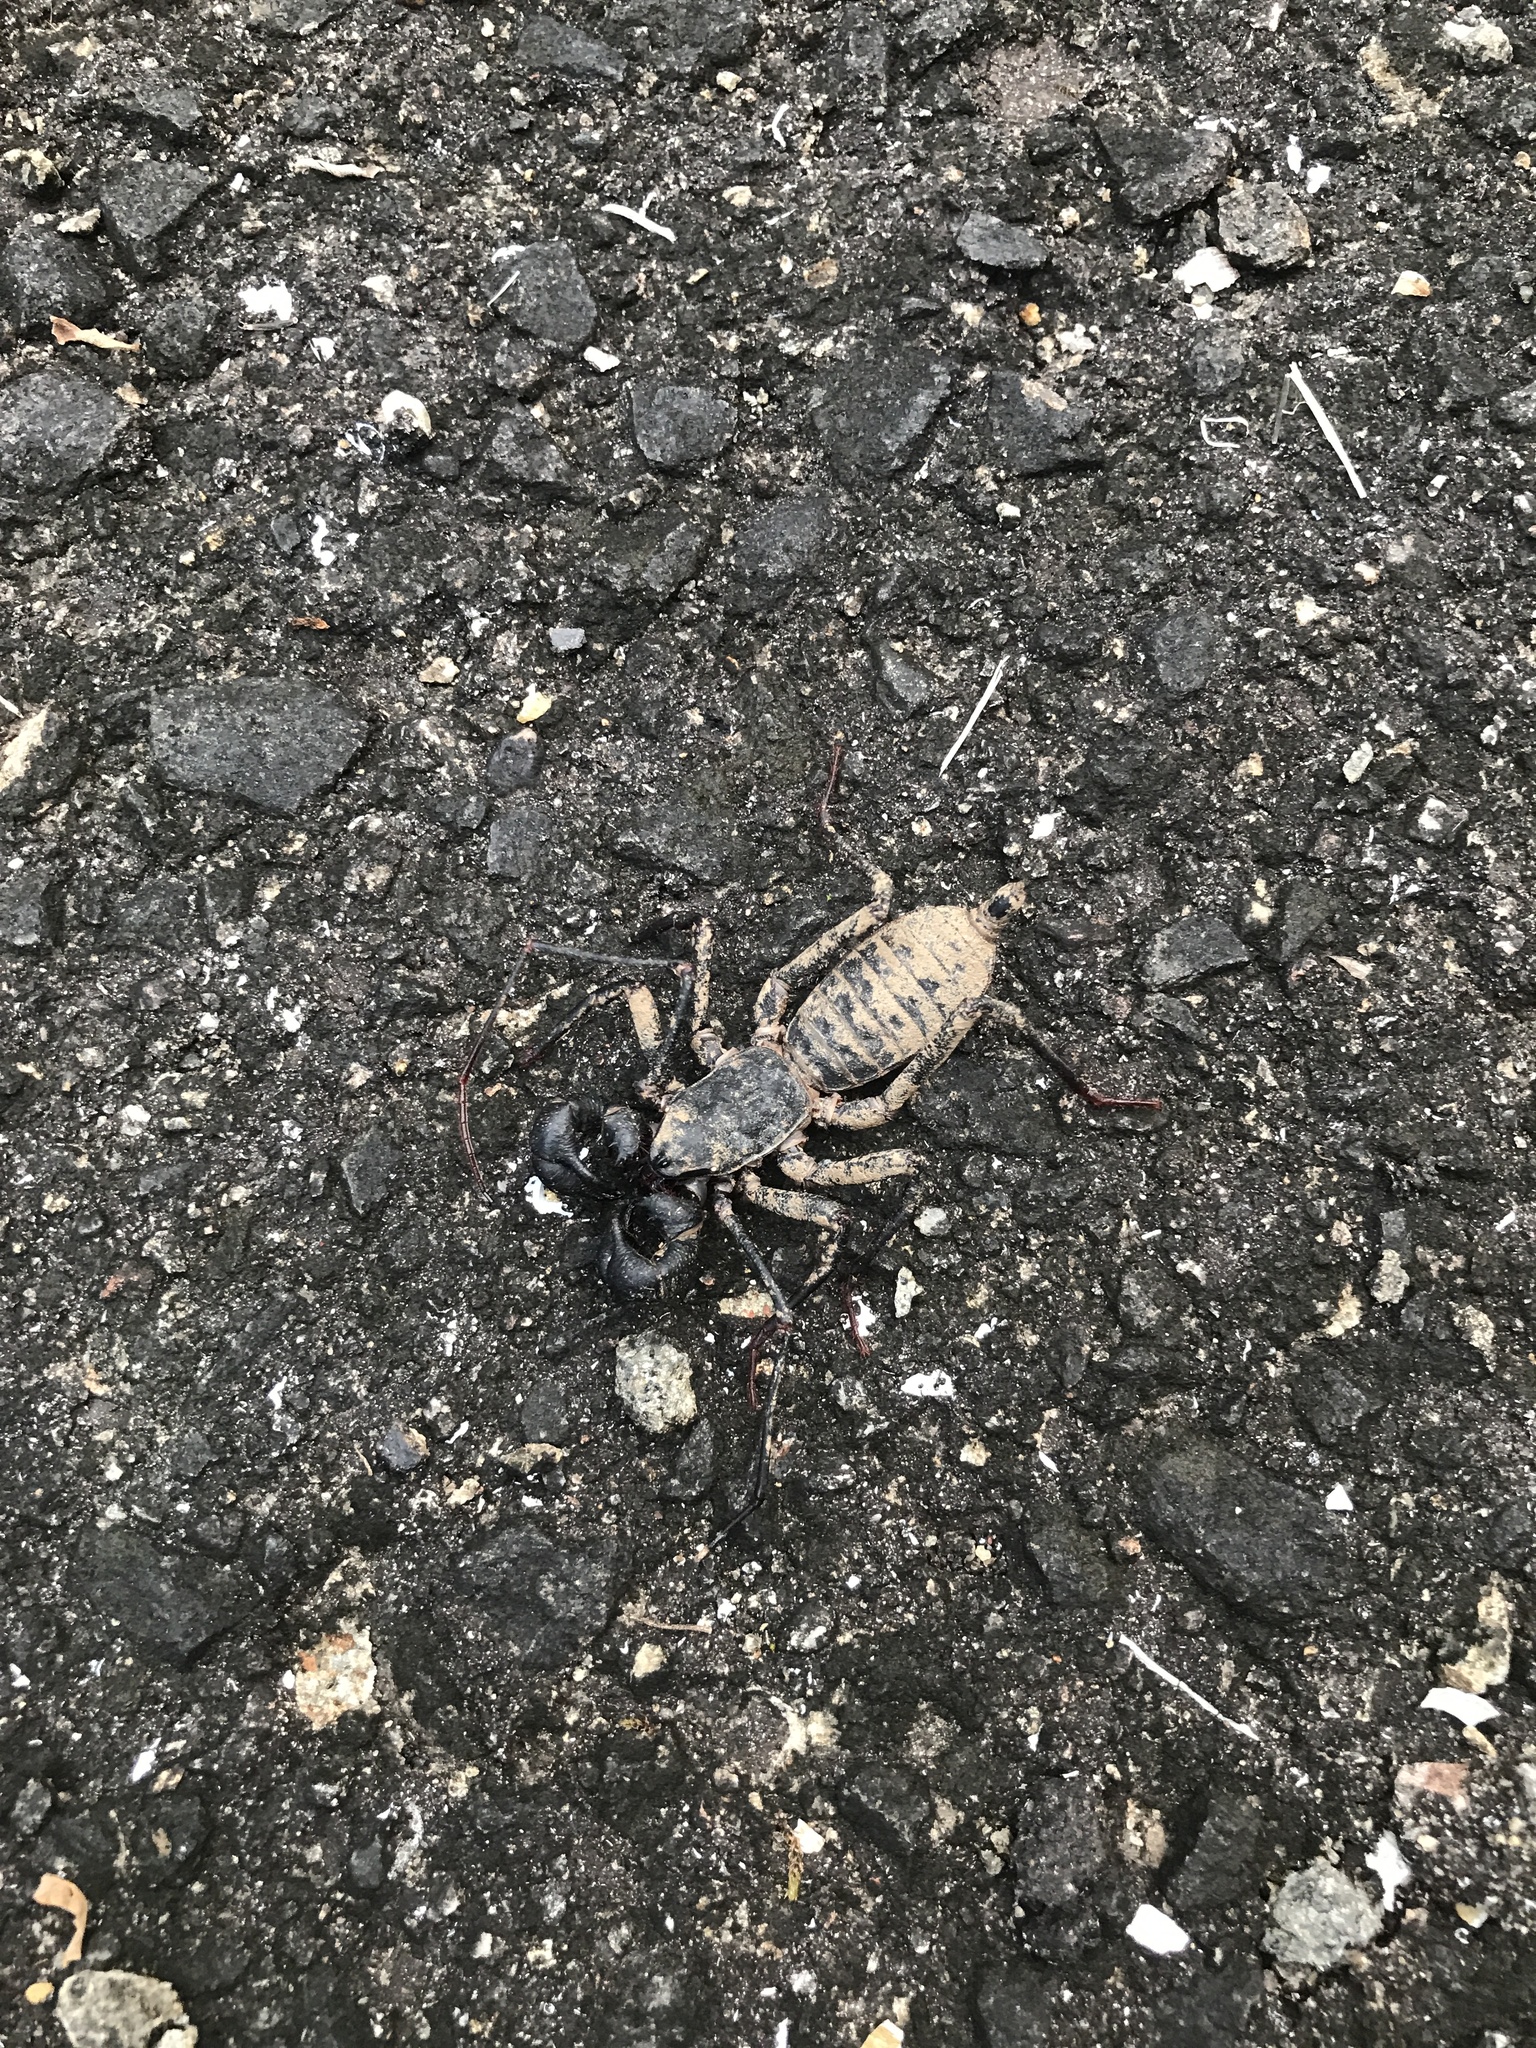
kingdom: Animalia
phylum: Arthropoda
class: Arachnida
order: Uropygi
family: Thelyphonidae
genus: Typopeltis
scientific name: Typopeltis stimpsonii
